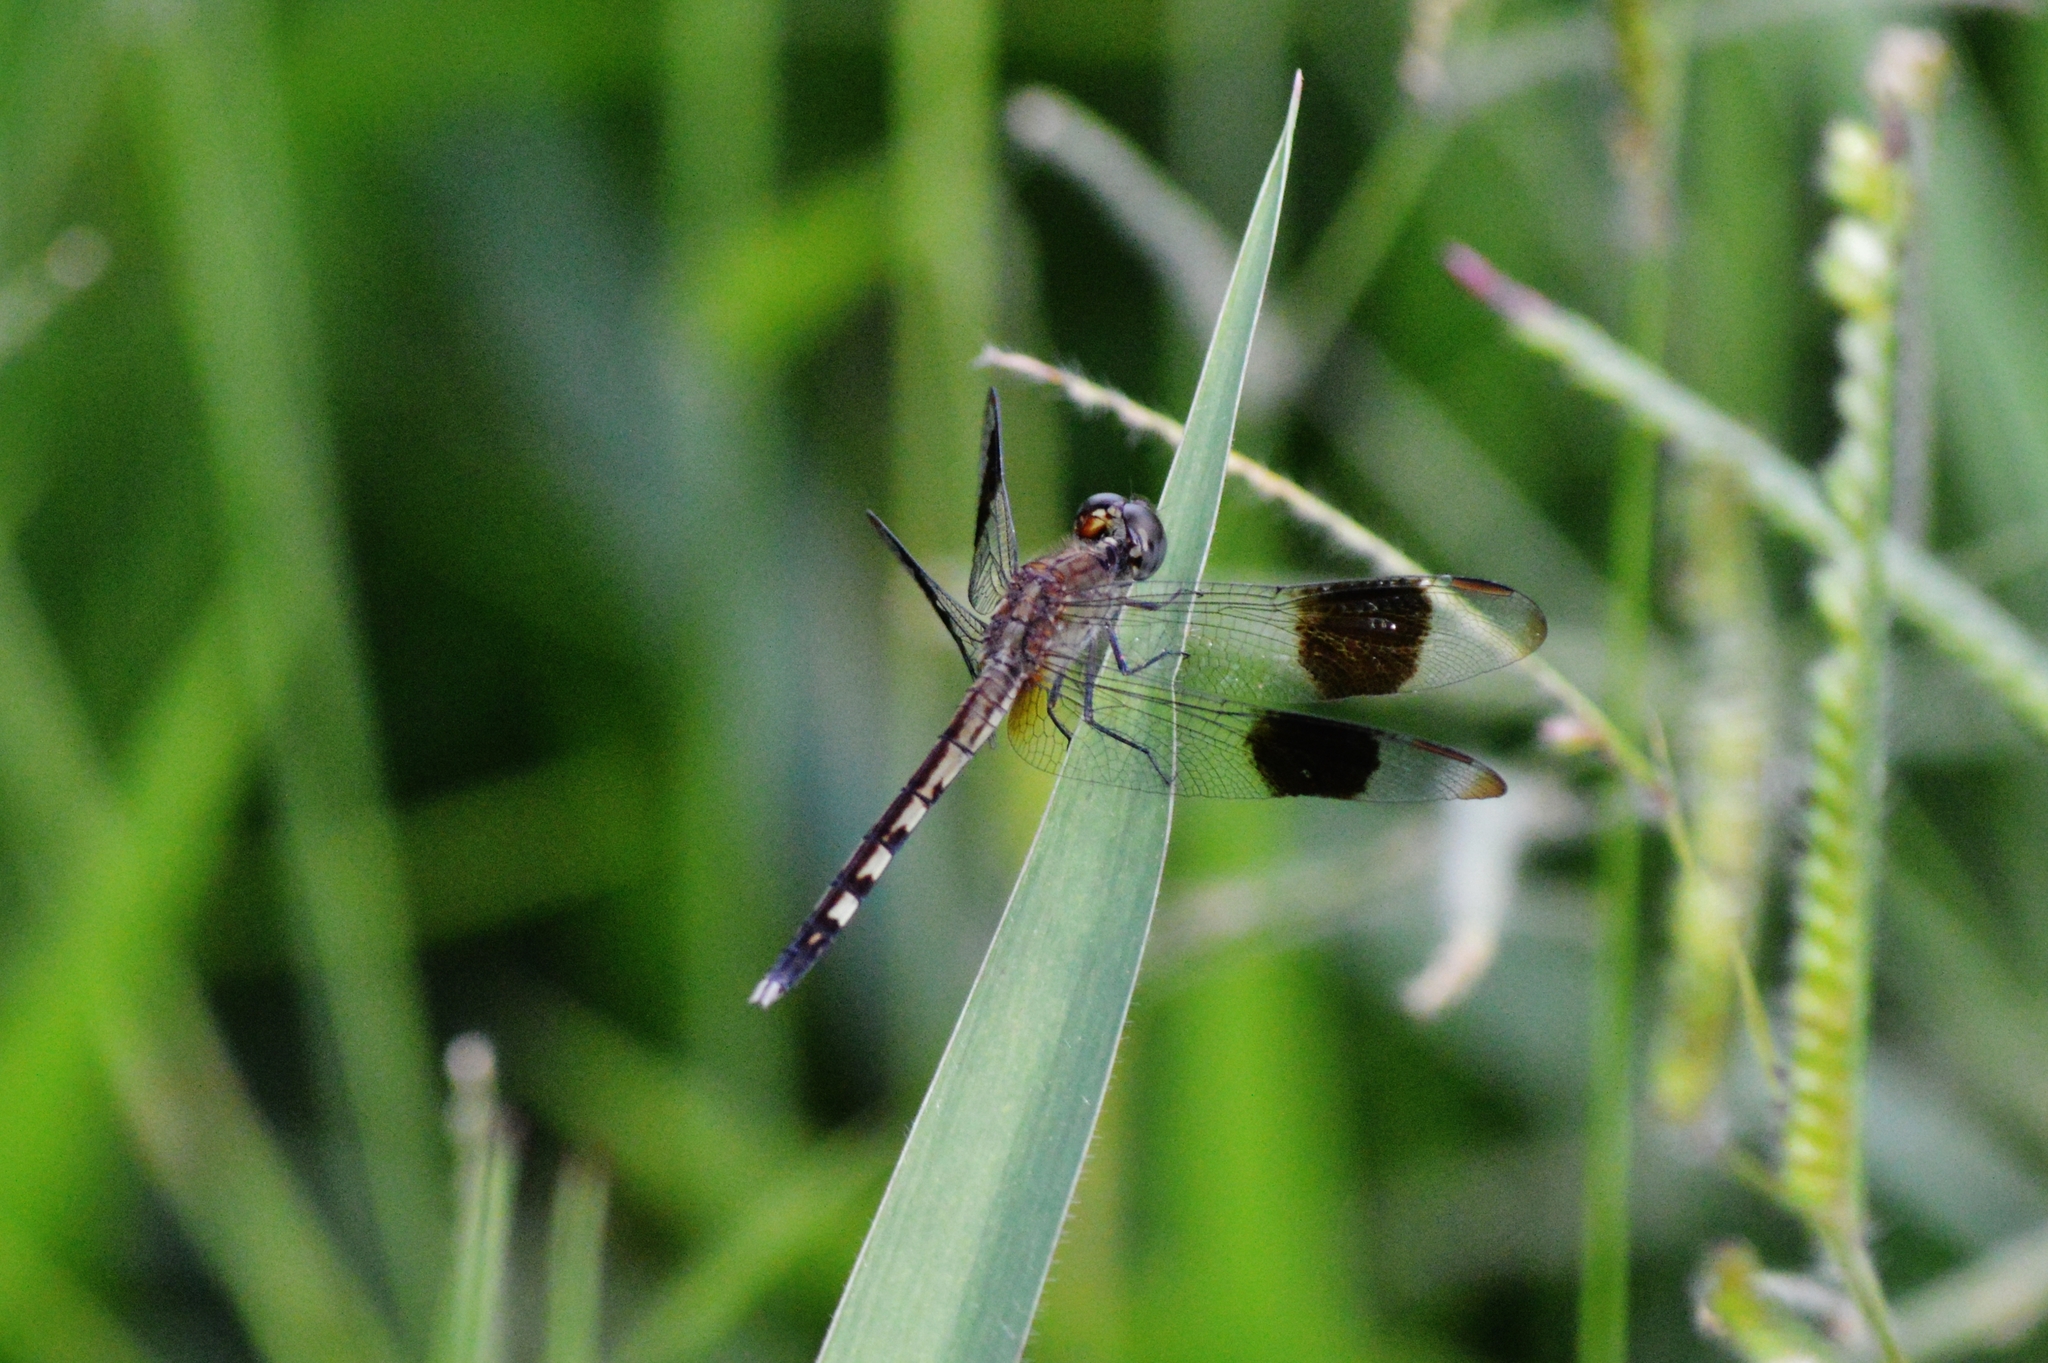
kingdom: Animalia
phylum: Arthropoda
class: Insecta
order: Odonata
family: Libellulidae
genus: Erythrodiplax
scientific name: Erythrodiplax umbrata
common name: Band-winged dragonlet
